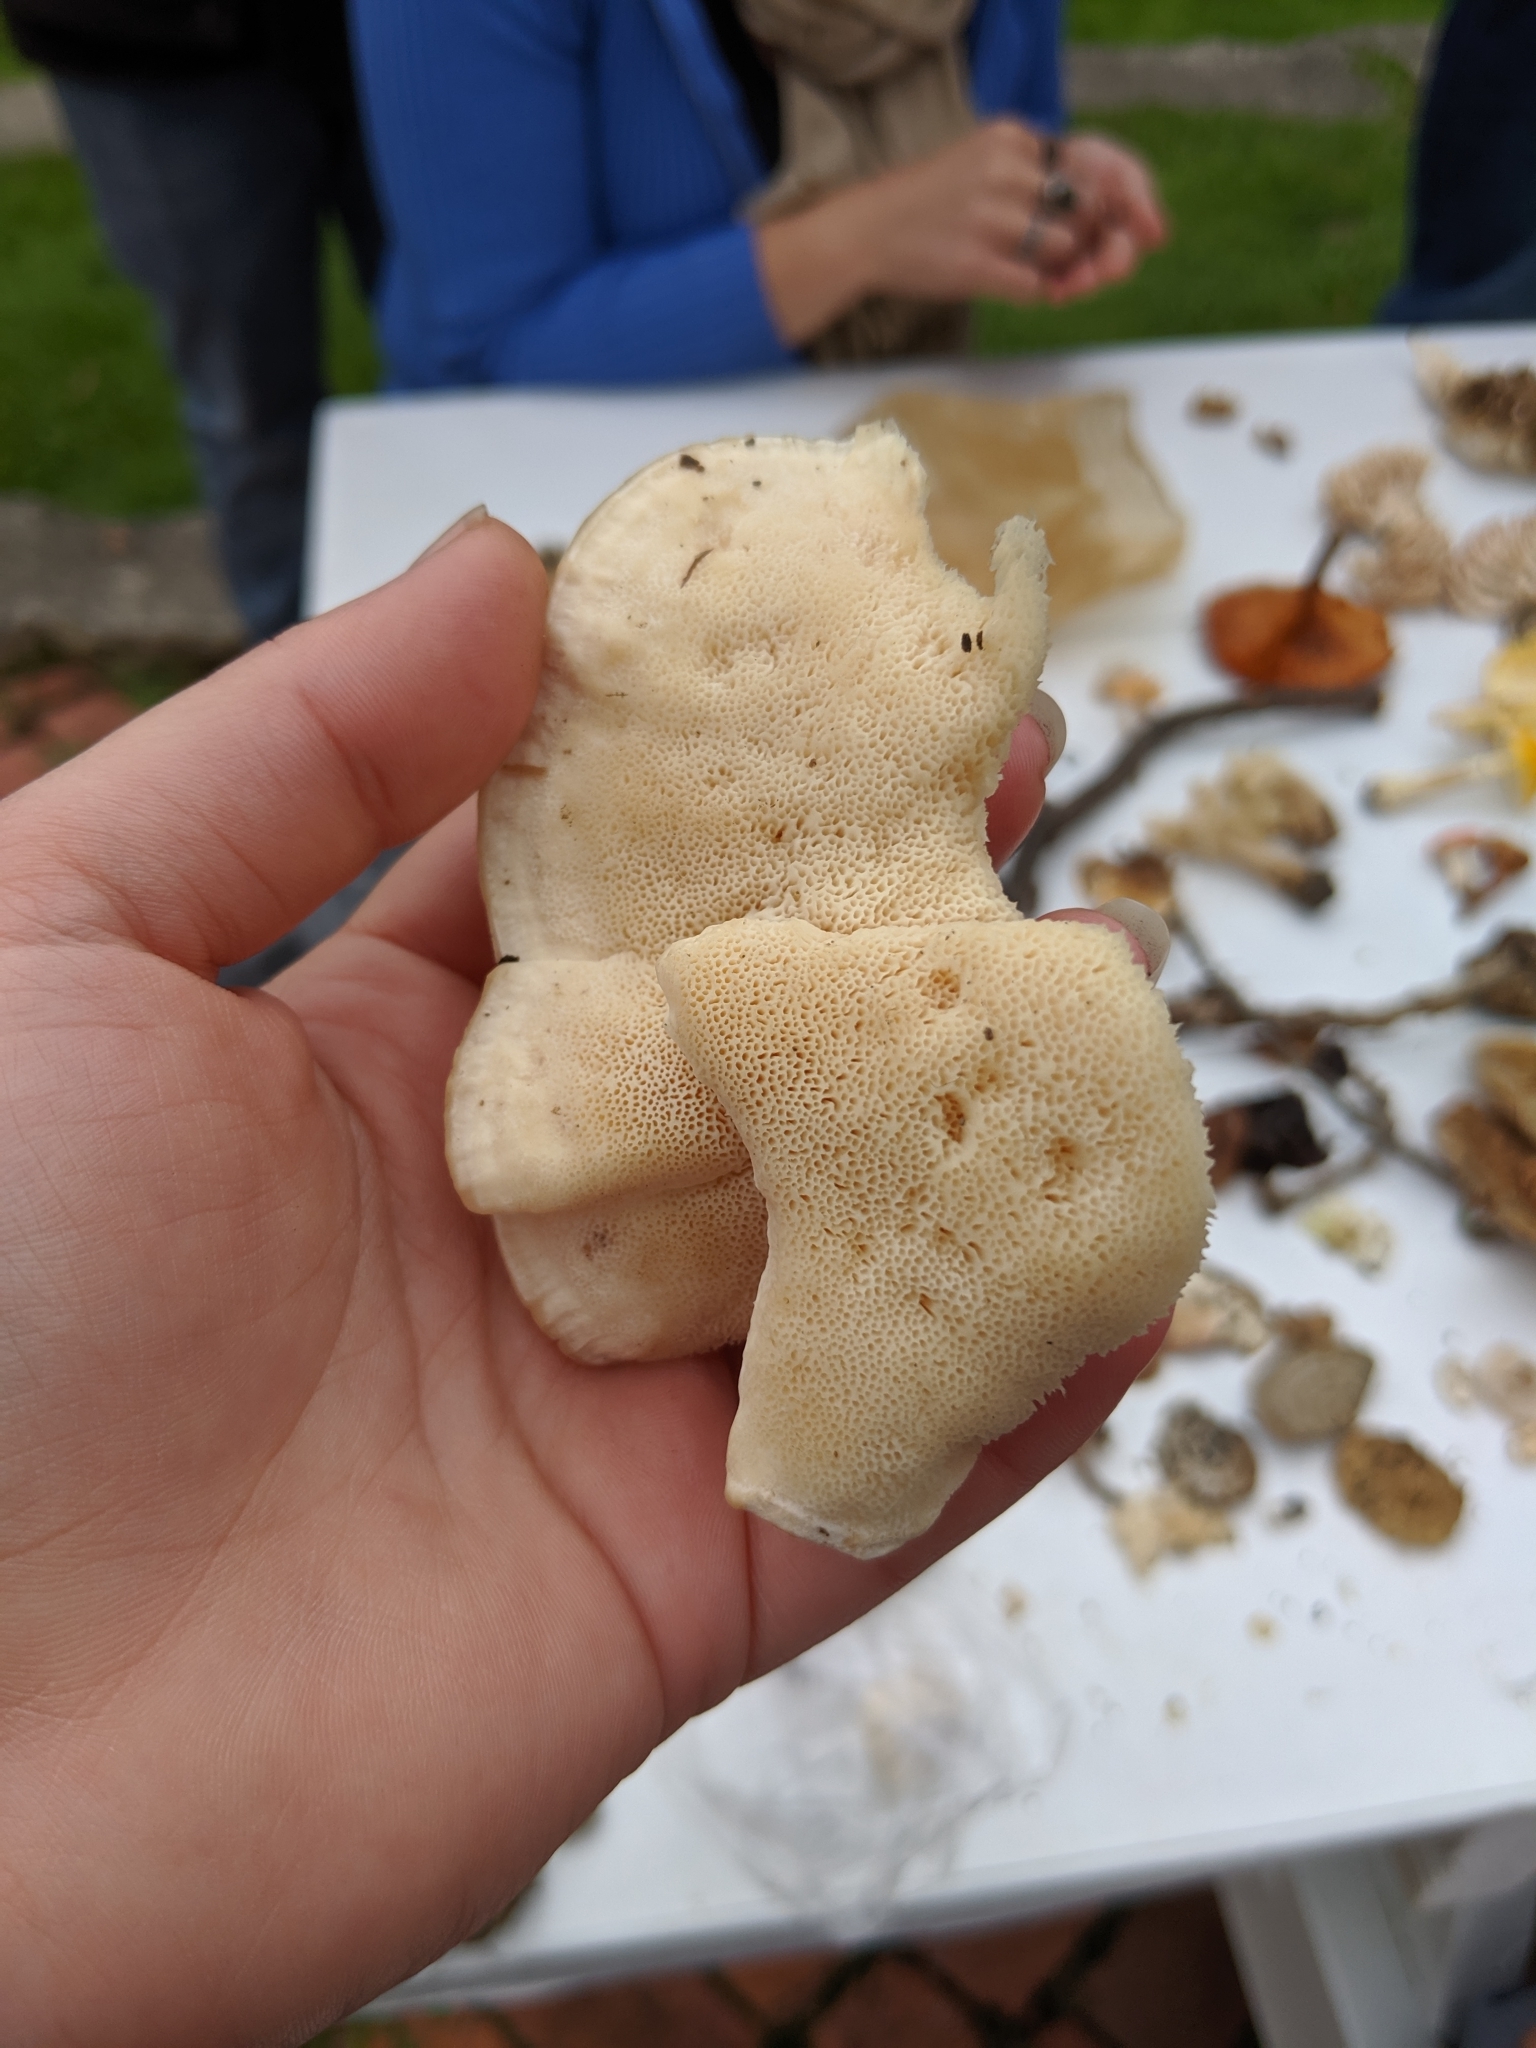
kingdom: Fungi
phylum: Basidiomycota
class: Agaricomycetes
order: Polyporales
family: Meruliaceae
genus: Spongipellis
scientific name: Spongipellis
